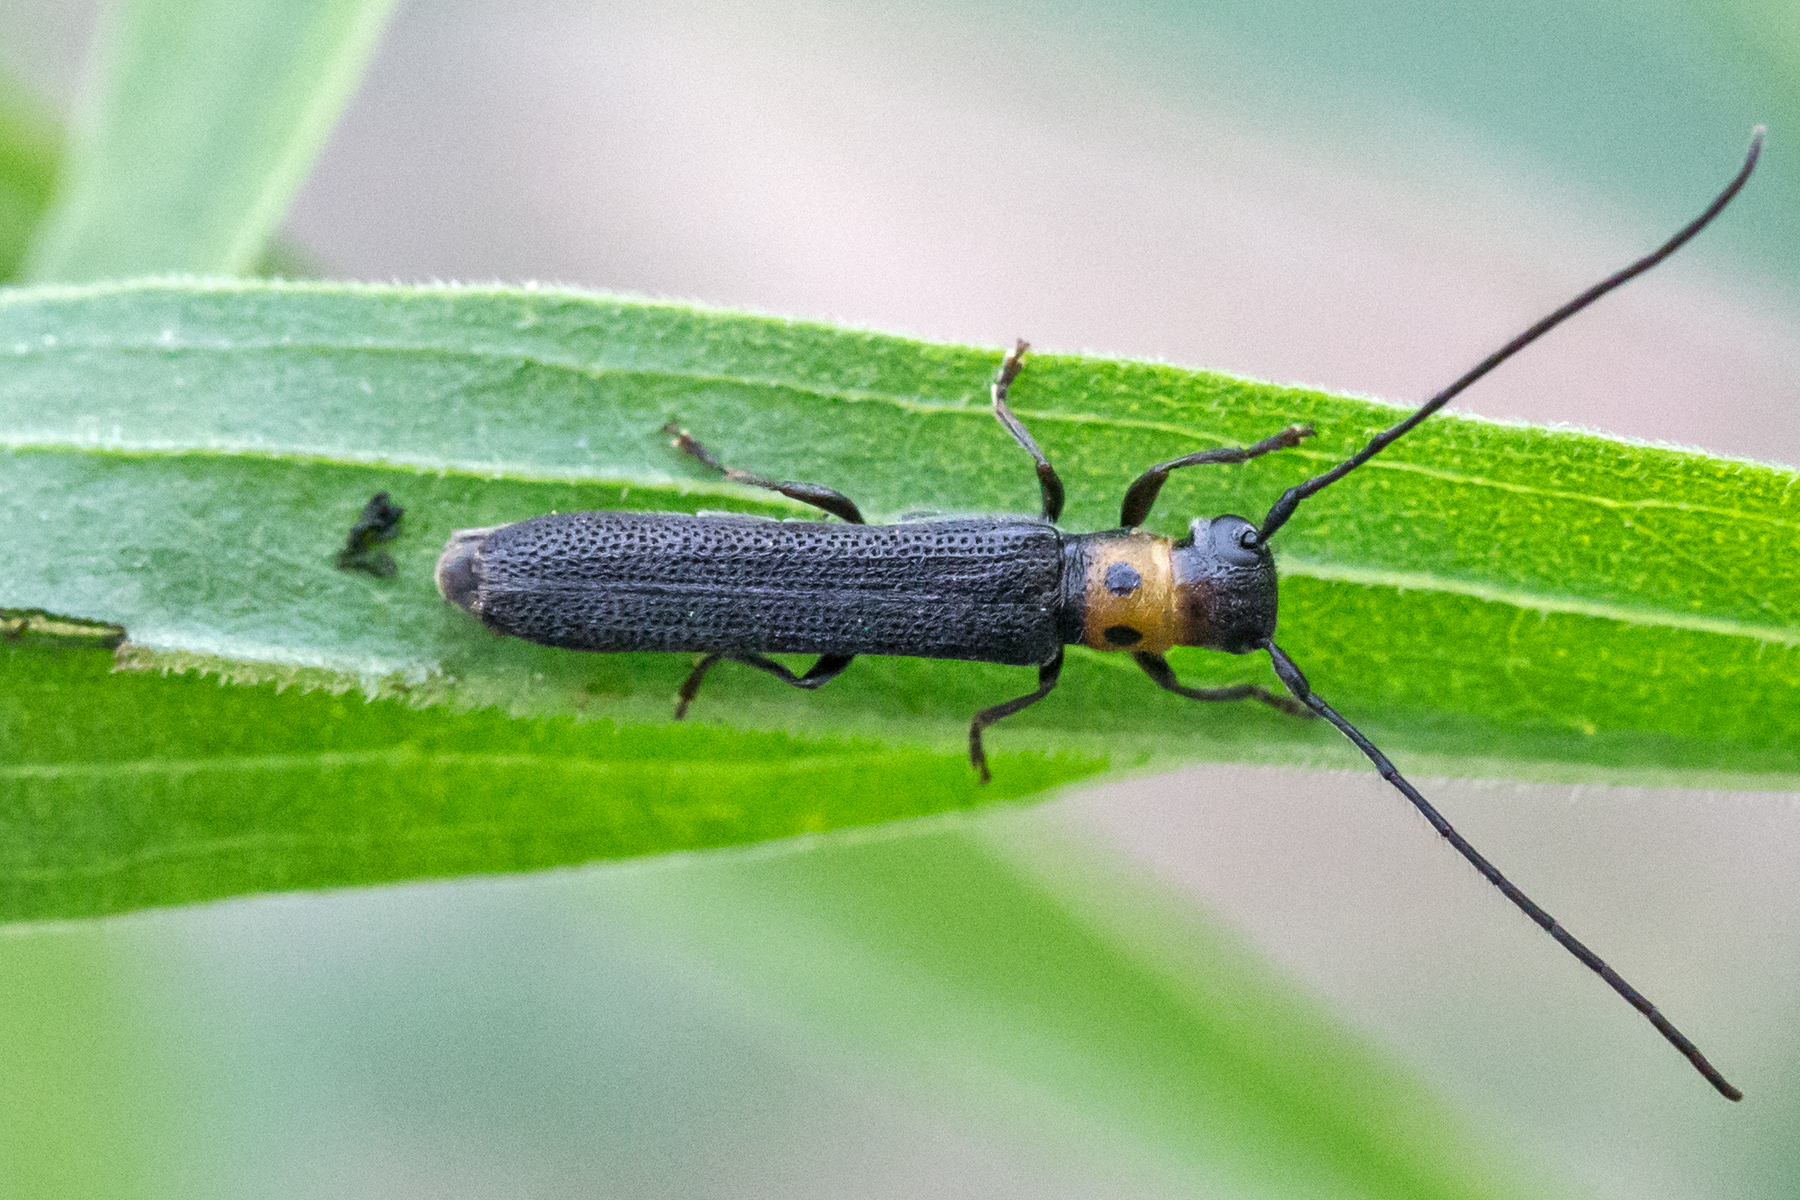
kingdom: Animalia
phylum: Arthropoda
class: Insecta
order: Coleoptera
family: Cerambycidae
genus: Oberea
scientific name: Oberea perspicillata
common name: Raspberry cane borer
